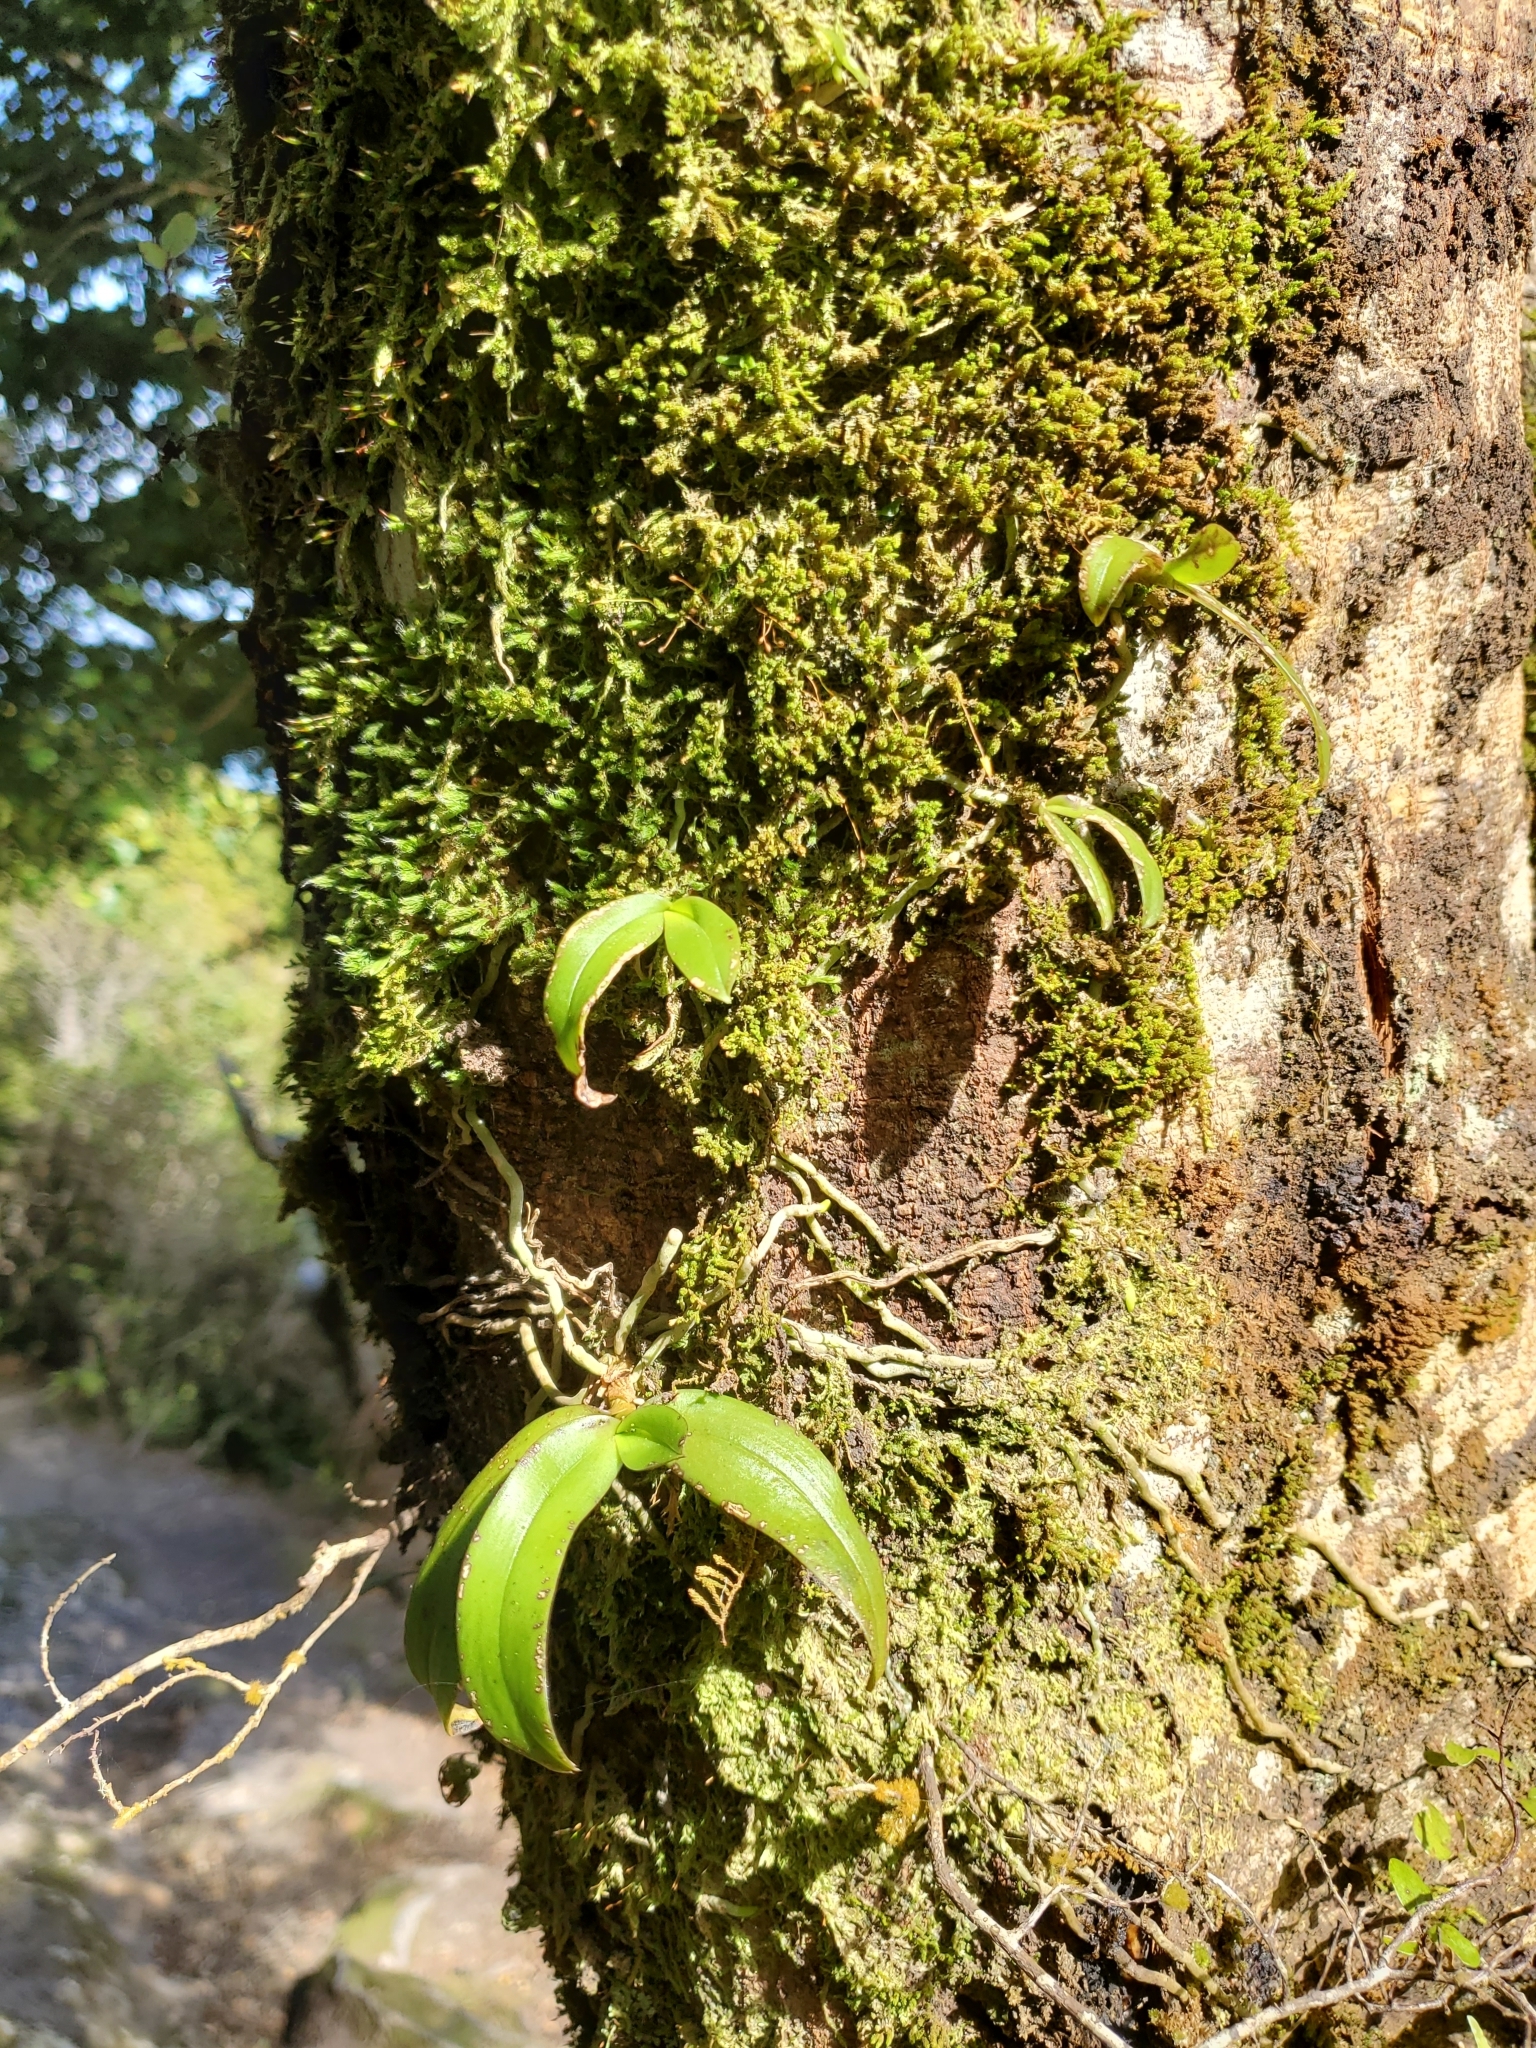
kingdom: Plantae
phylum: Tracheophyta
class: Liliopsida
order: Asparagales
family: Orchidaceae
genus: Drymoanthus
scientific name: Drymoanthus adversus
